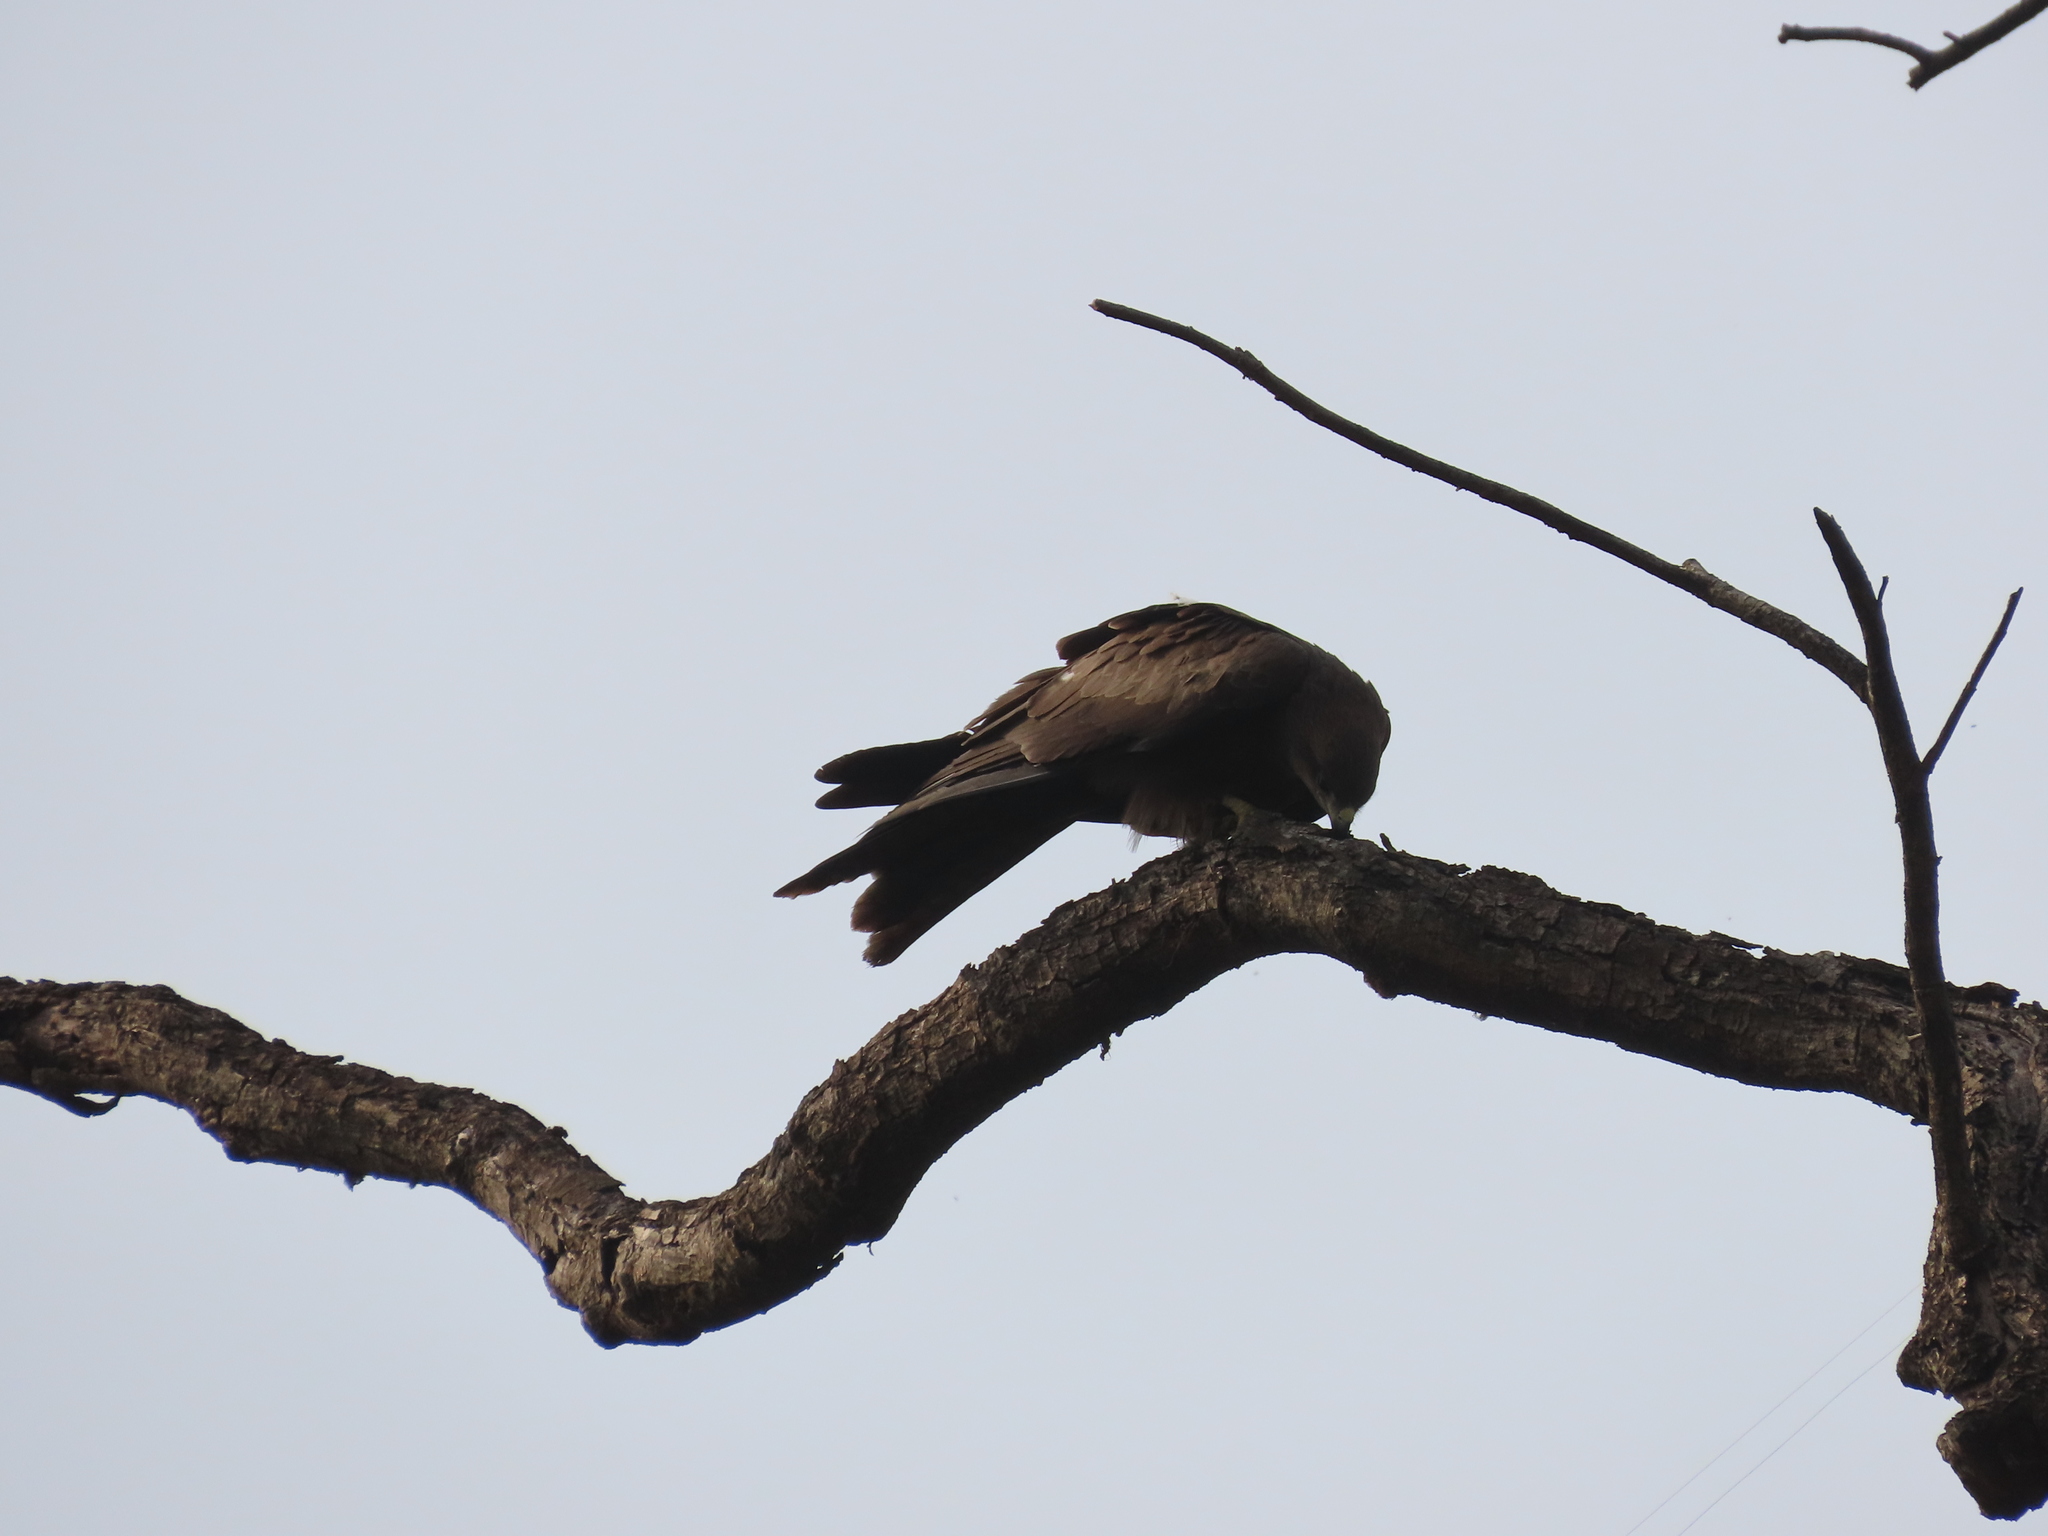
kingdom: Animalia
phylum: Chordata
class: Aves
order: Accipitriformes
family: Accipitridae
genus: Milvus
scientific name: Milvus migrans
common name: Black kite
